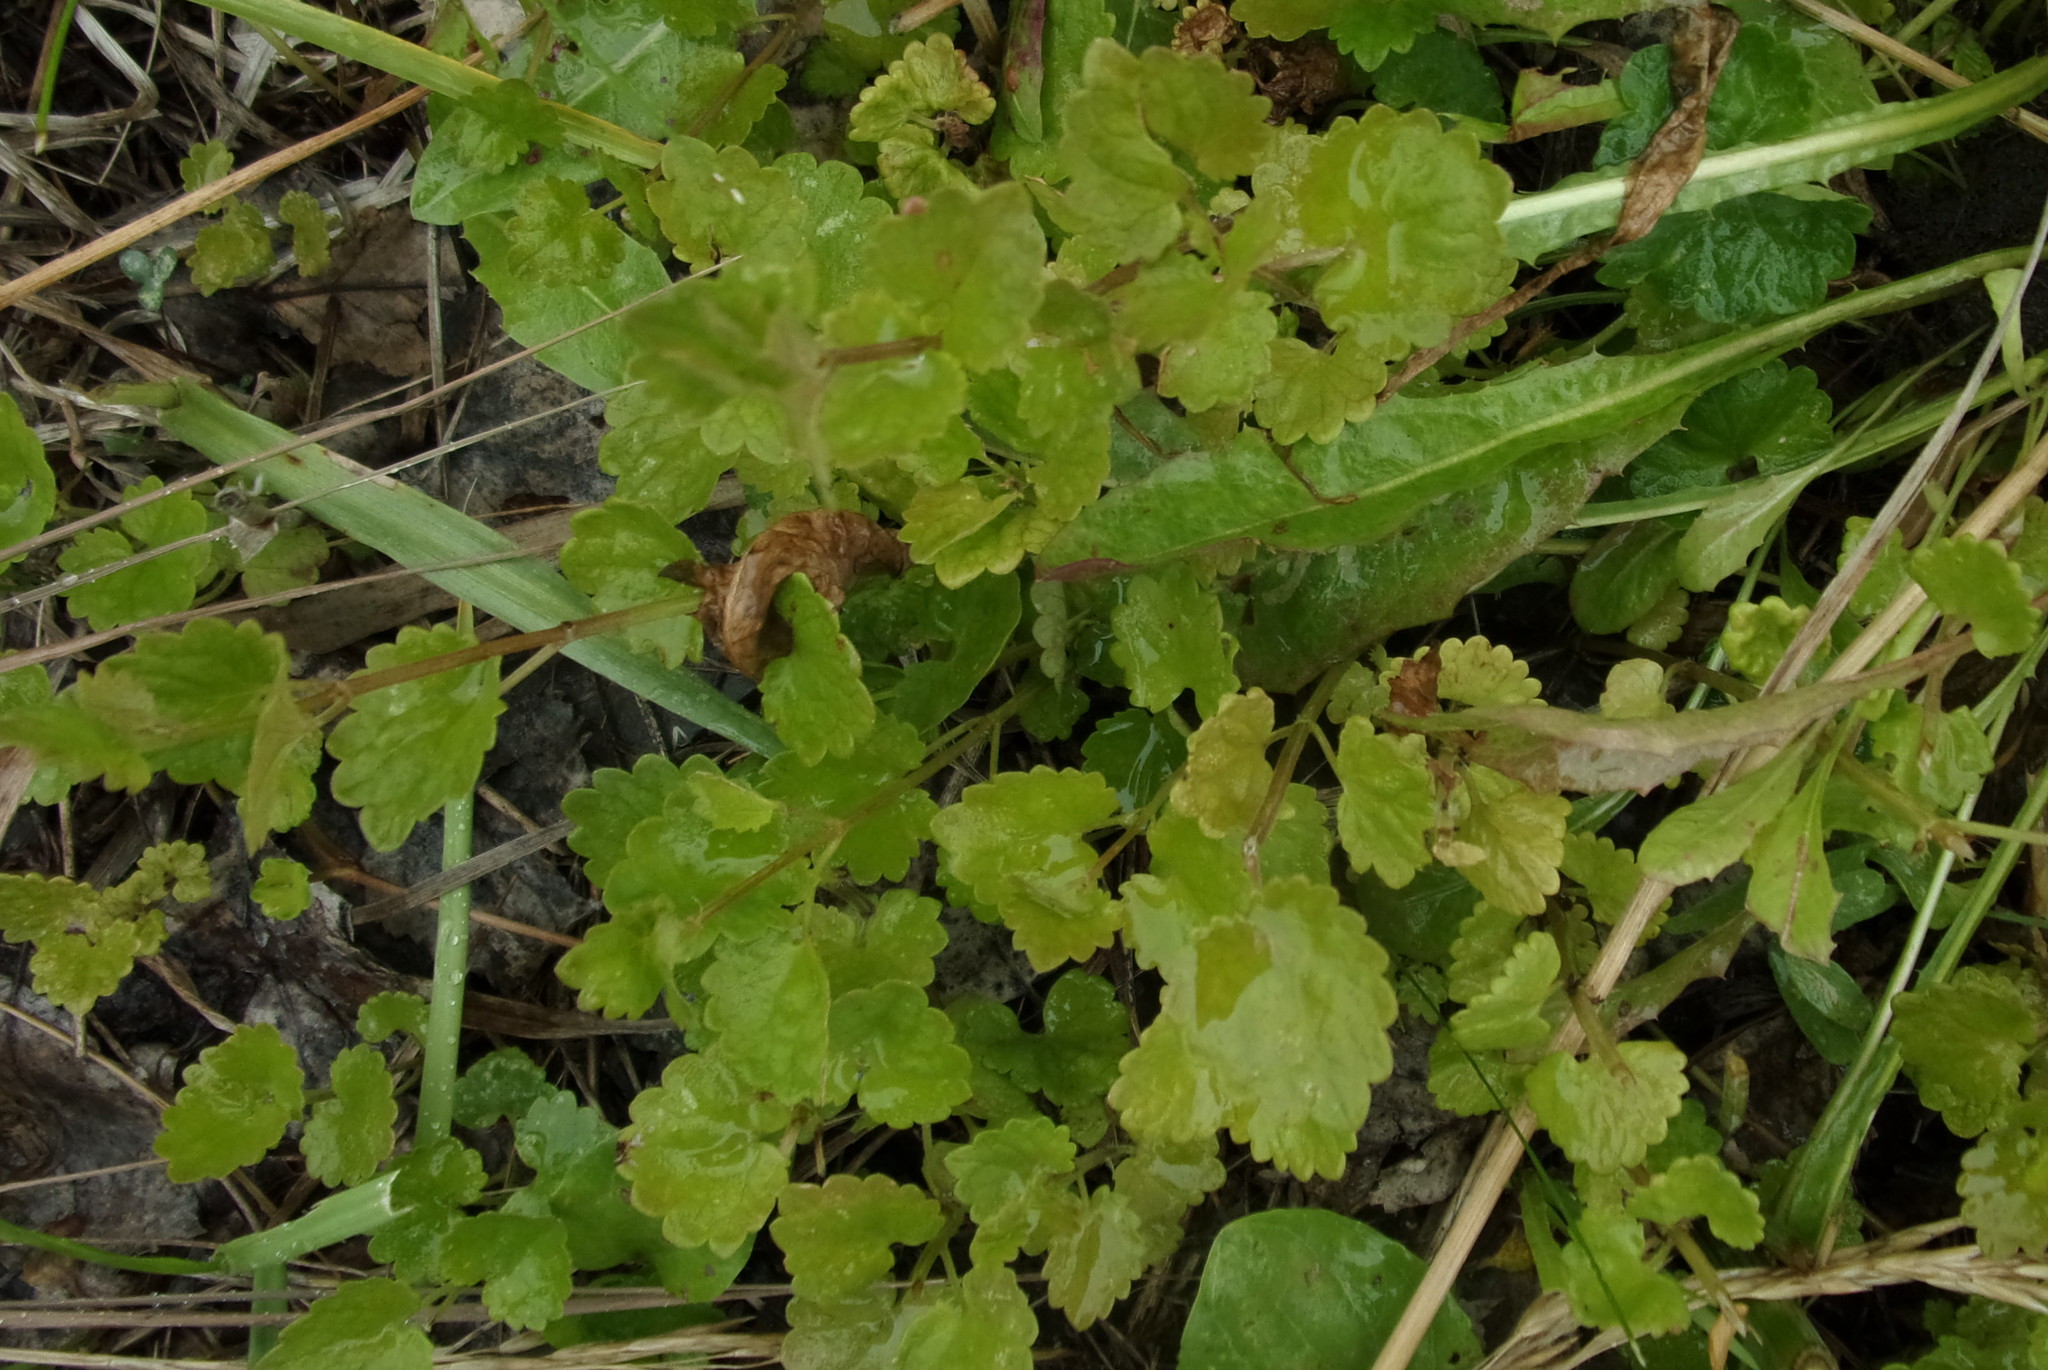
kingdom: Plantae
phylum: Tracheophyta
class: Magnoliopsida
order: Lamiales
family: Lamiaceae
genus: Glechoma
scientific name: Glechoma hederacea
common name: Ground ivy
